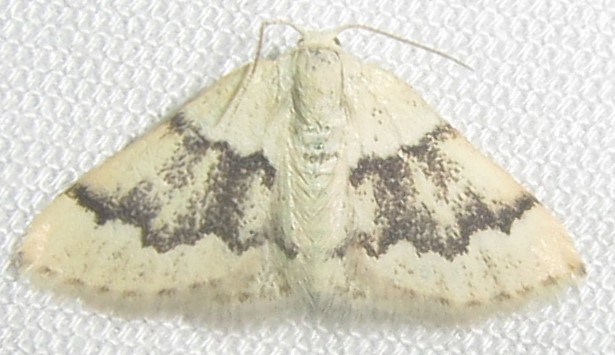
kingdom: Animalia
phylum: Arthropoda
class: Insecta
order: Lepidoptera
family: Geometridae
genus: Acidaliastis
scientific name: Acidaliastis prophanes
